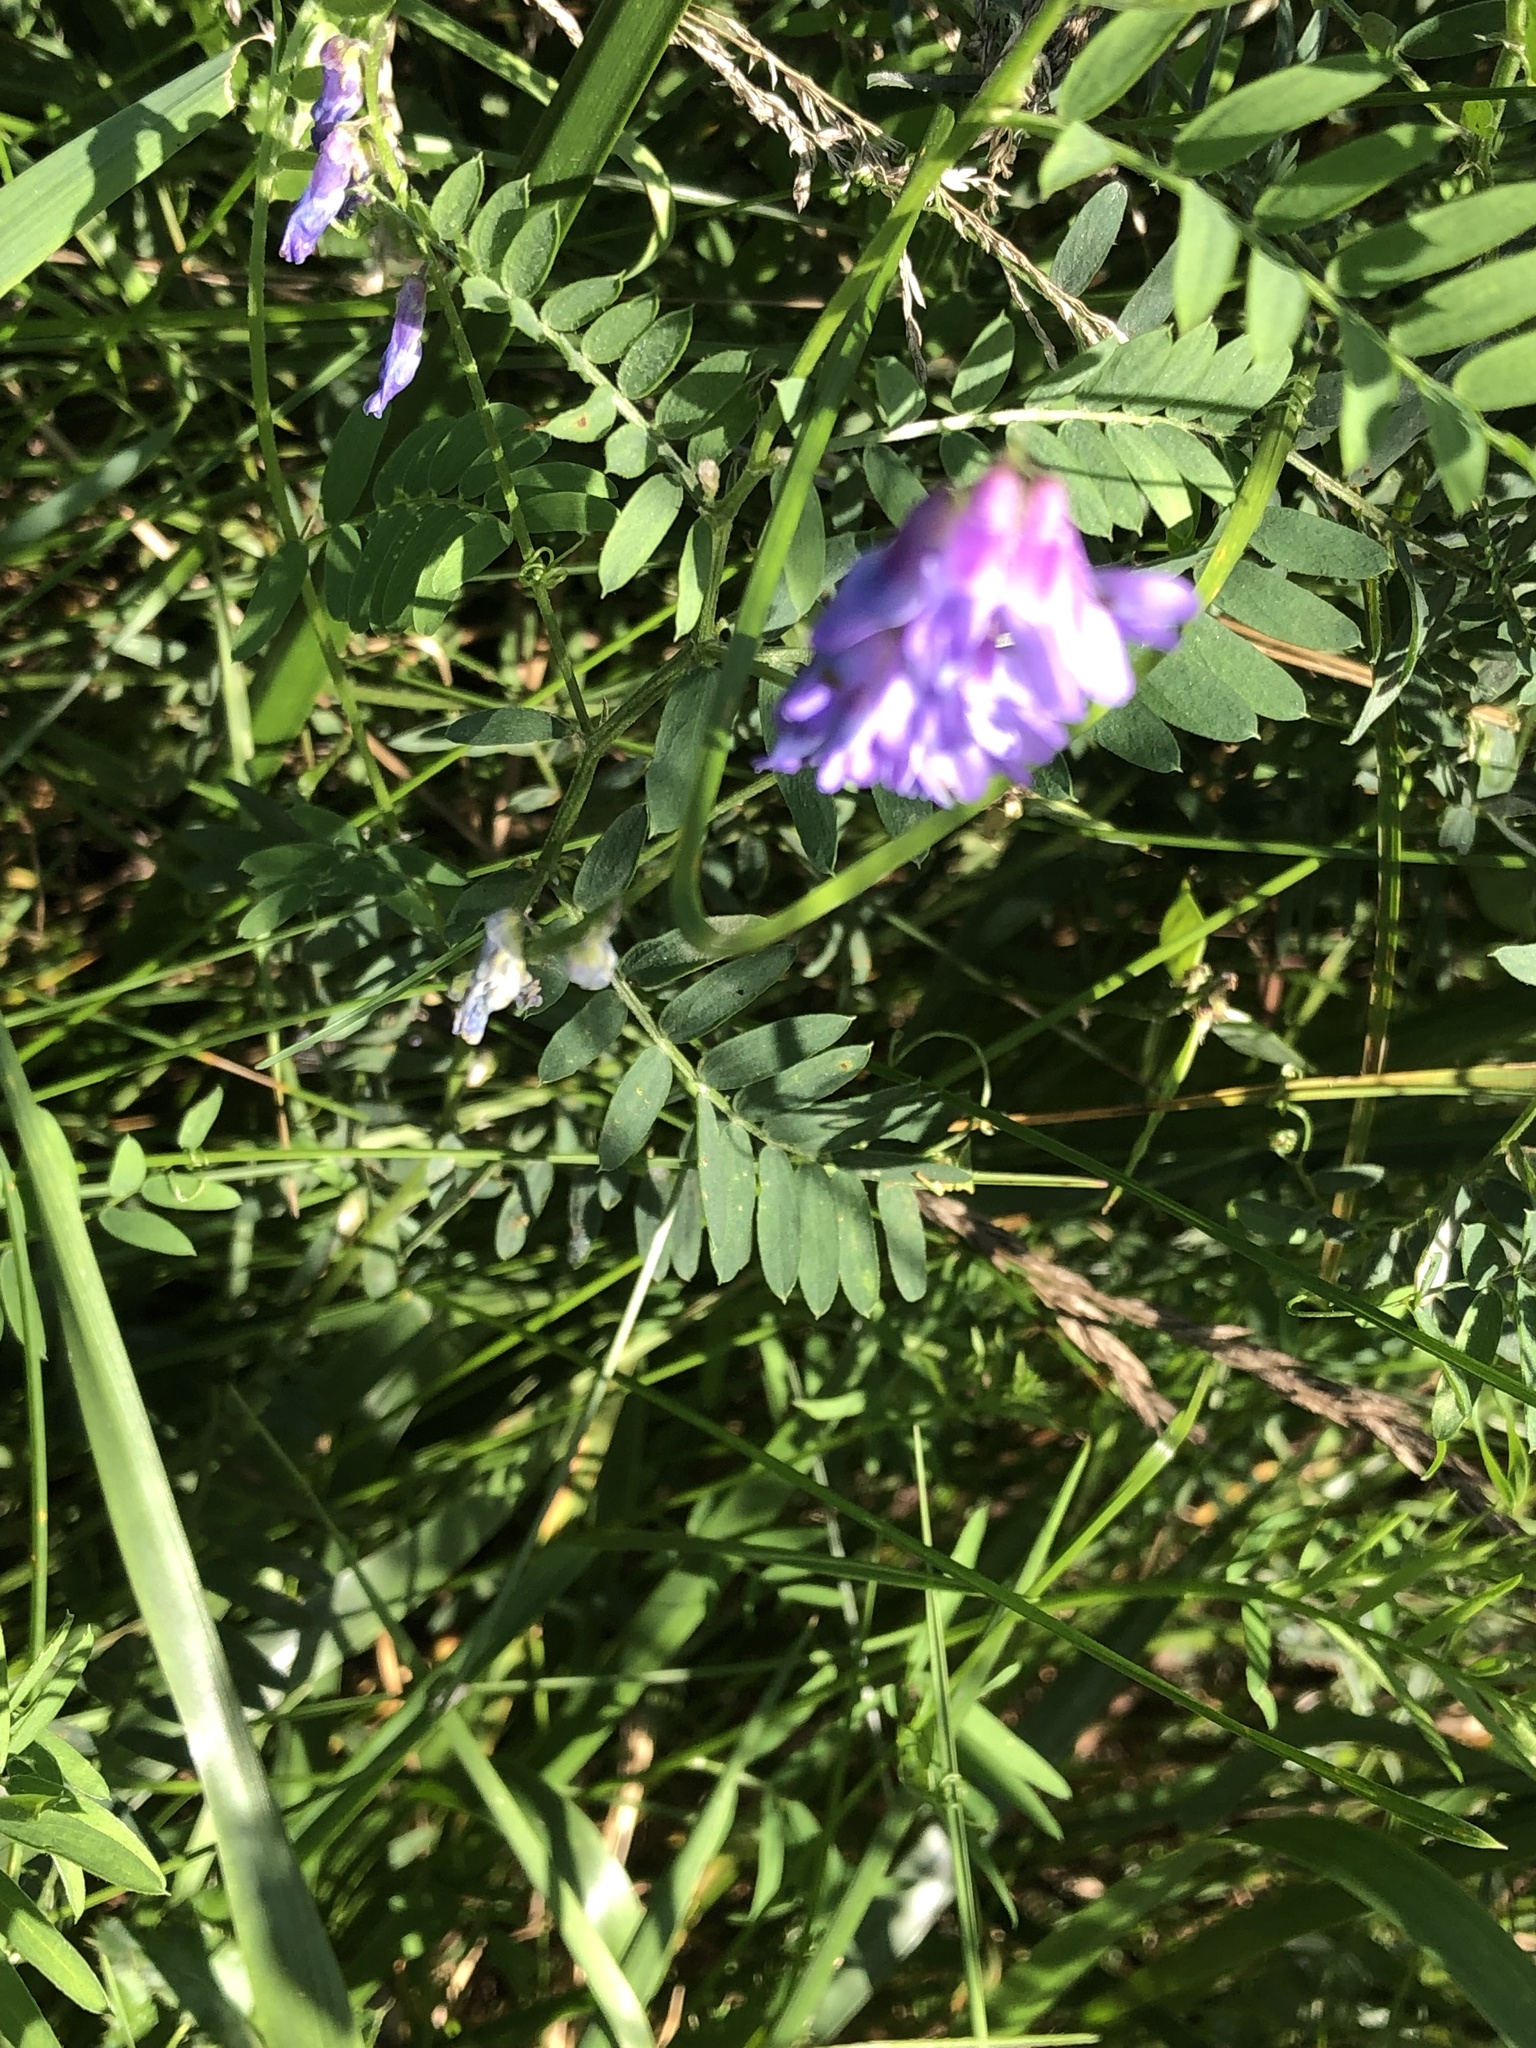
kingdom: Plantae
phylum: Tracheophyta
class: Magnoliopsida
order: Fabales
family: Fabaceae
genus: Vicia
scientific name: Vicia cracca
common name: Bird vetch
